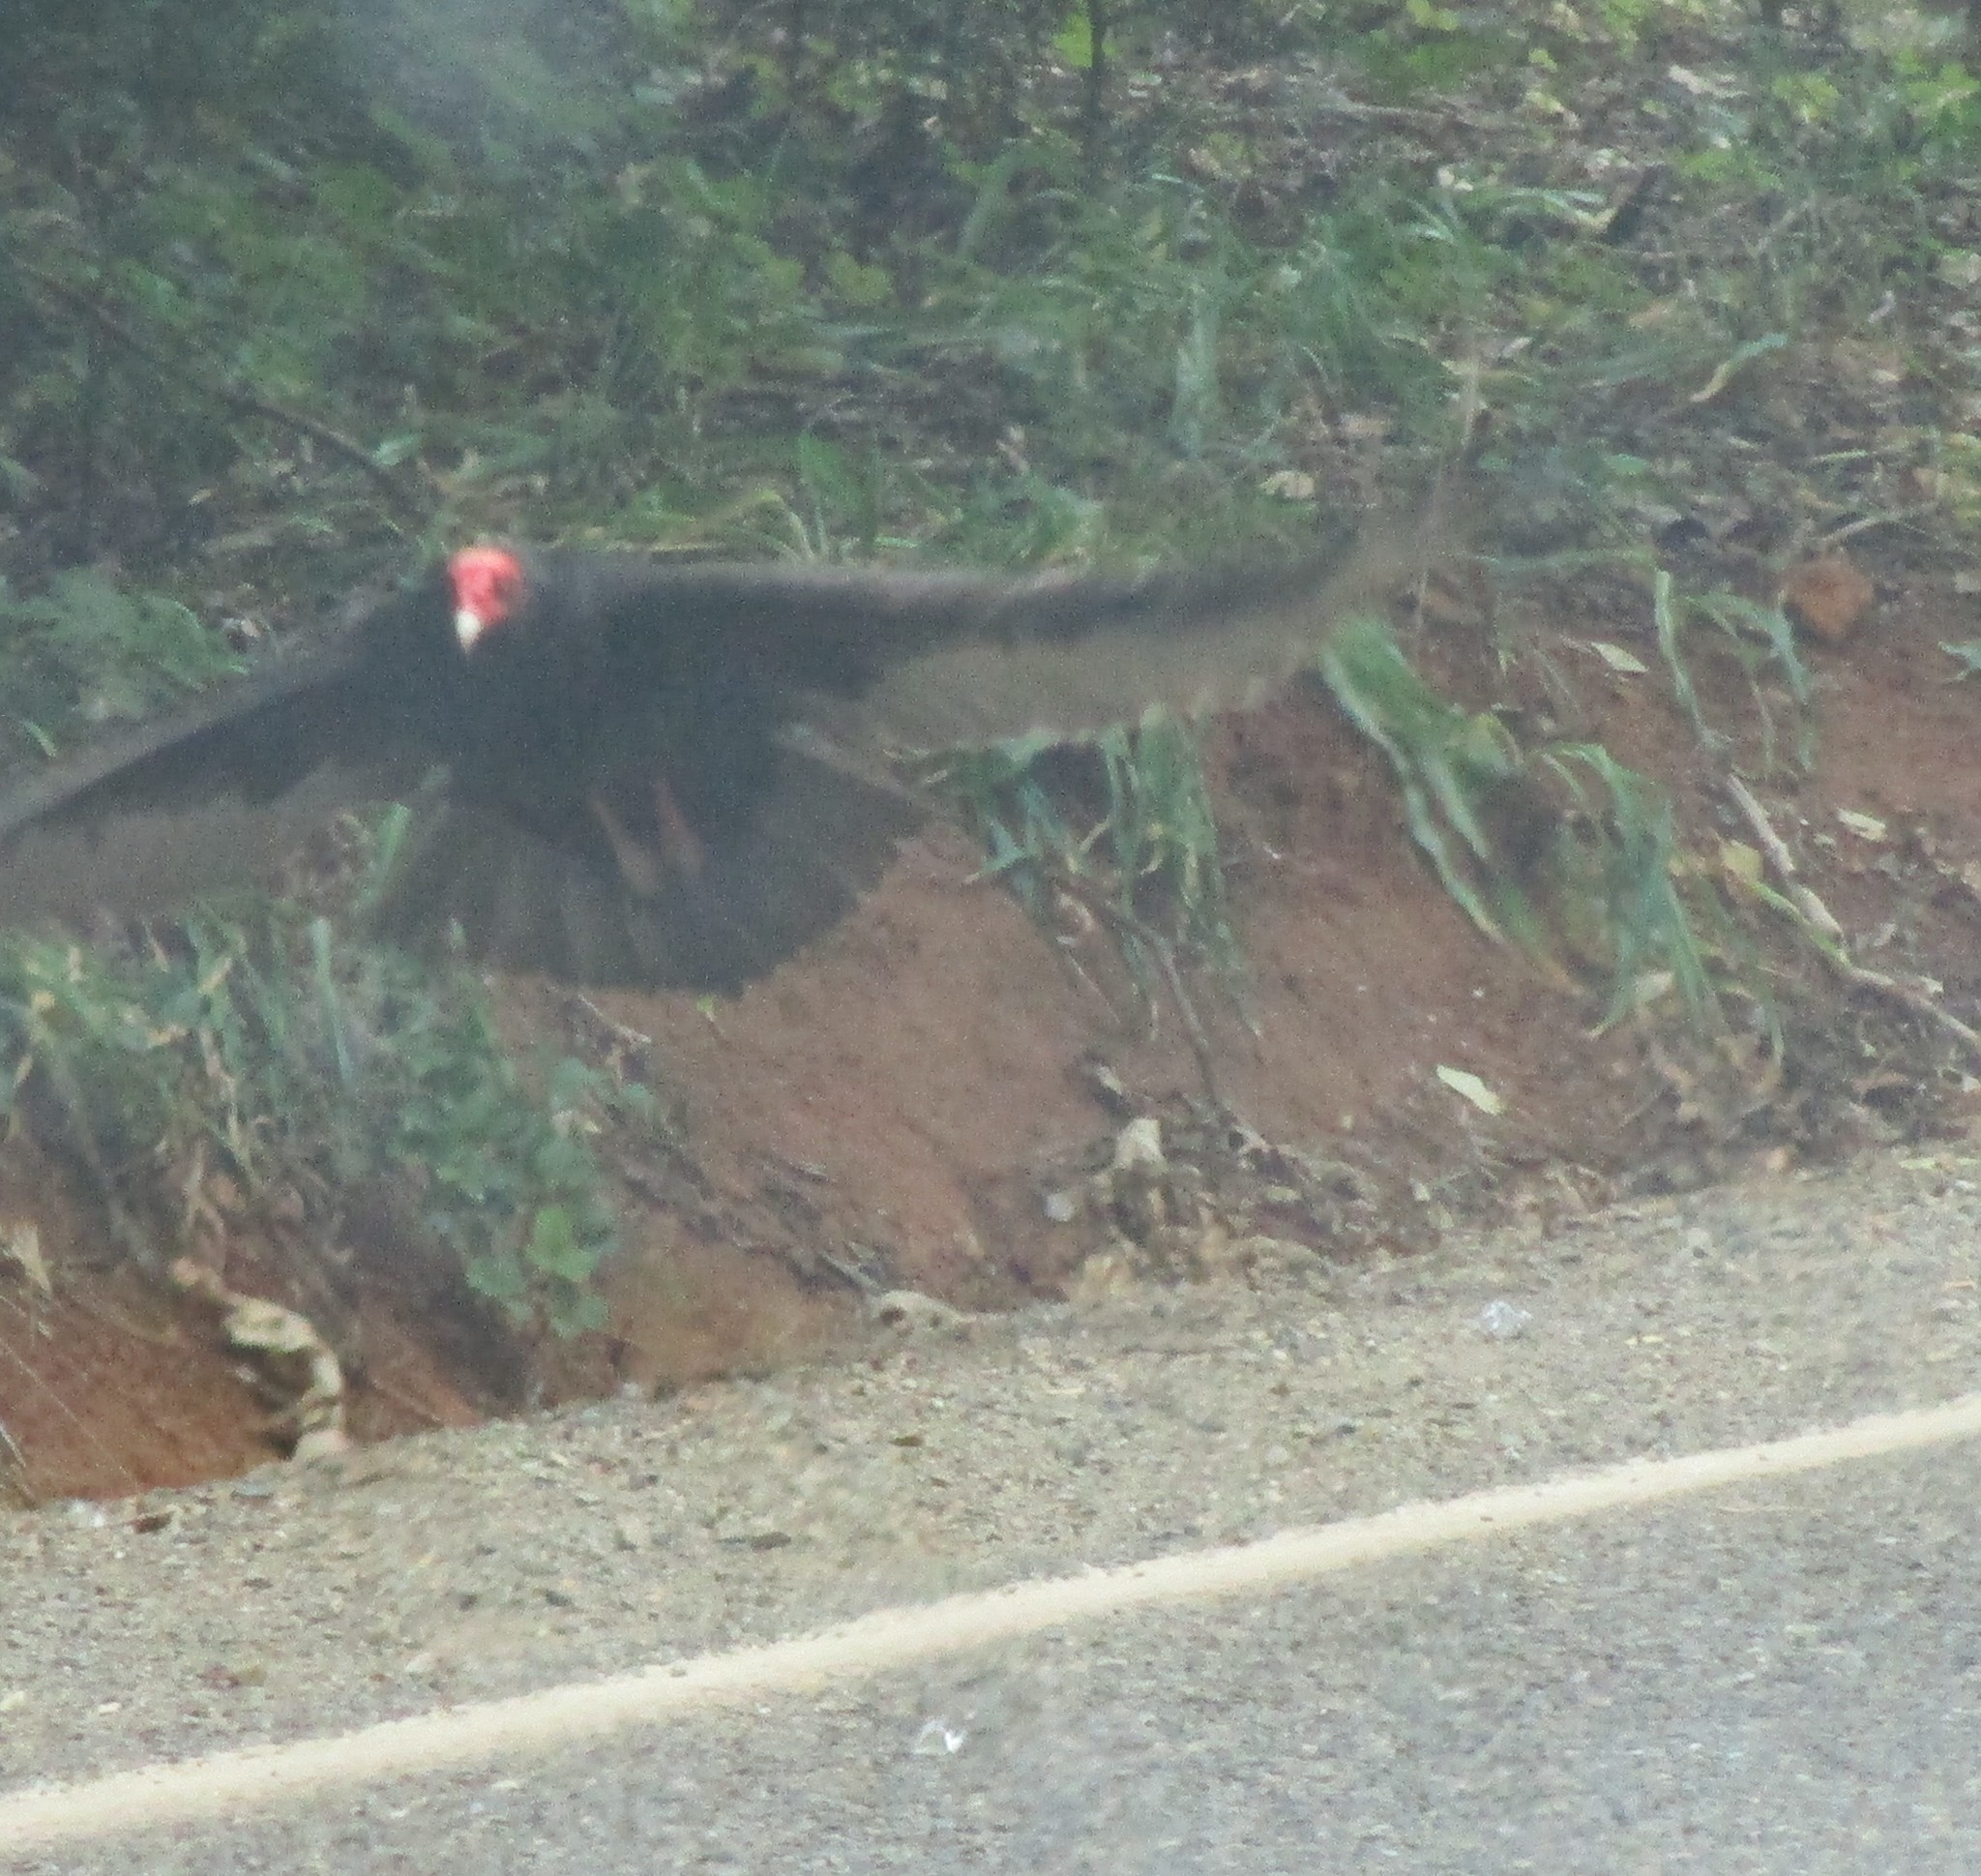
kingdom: Animalia
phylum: Chordata
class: Aves
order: Accipitriformes
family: Cathartidae
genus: Cathartes
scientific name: Cathartes aura
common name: Turkey vulture
